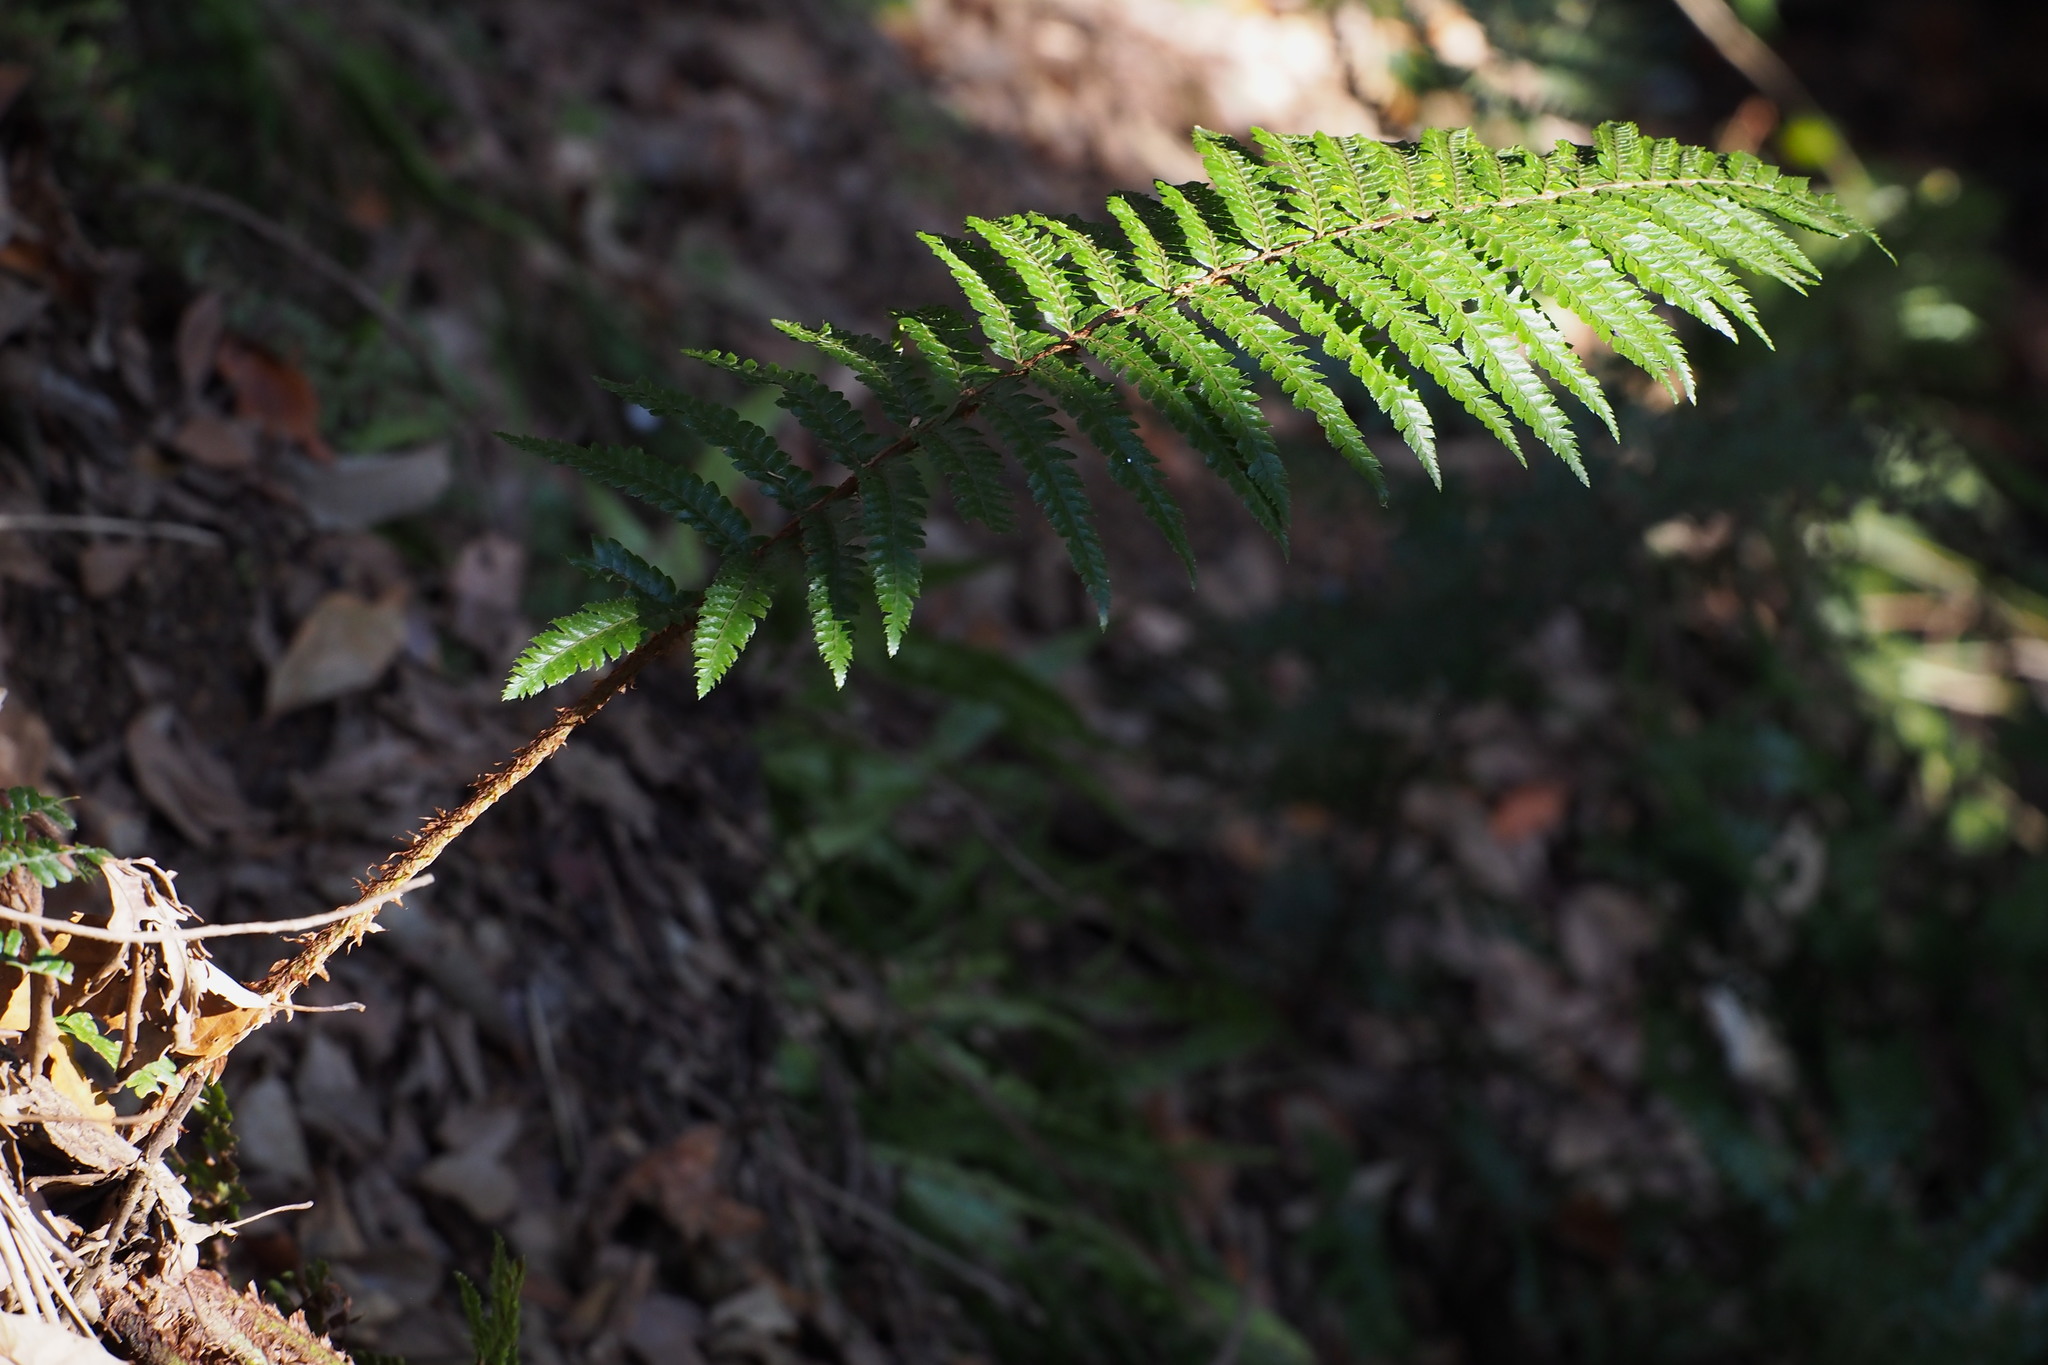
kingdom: Plantae
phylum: Tracheophyta
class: Polypodiopsida
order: Polypodiales
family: Dryopteridaceae
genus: Polystichum
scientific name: Polystichum luctuosum
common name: Korean rockfern
